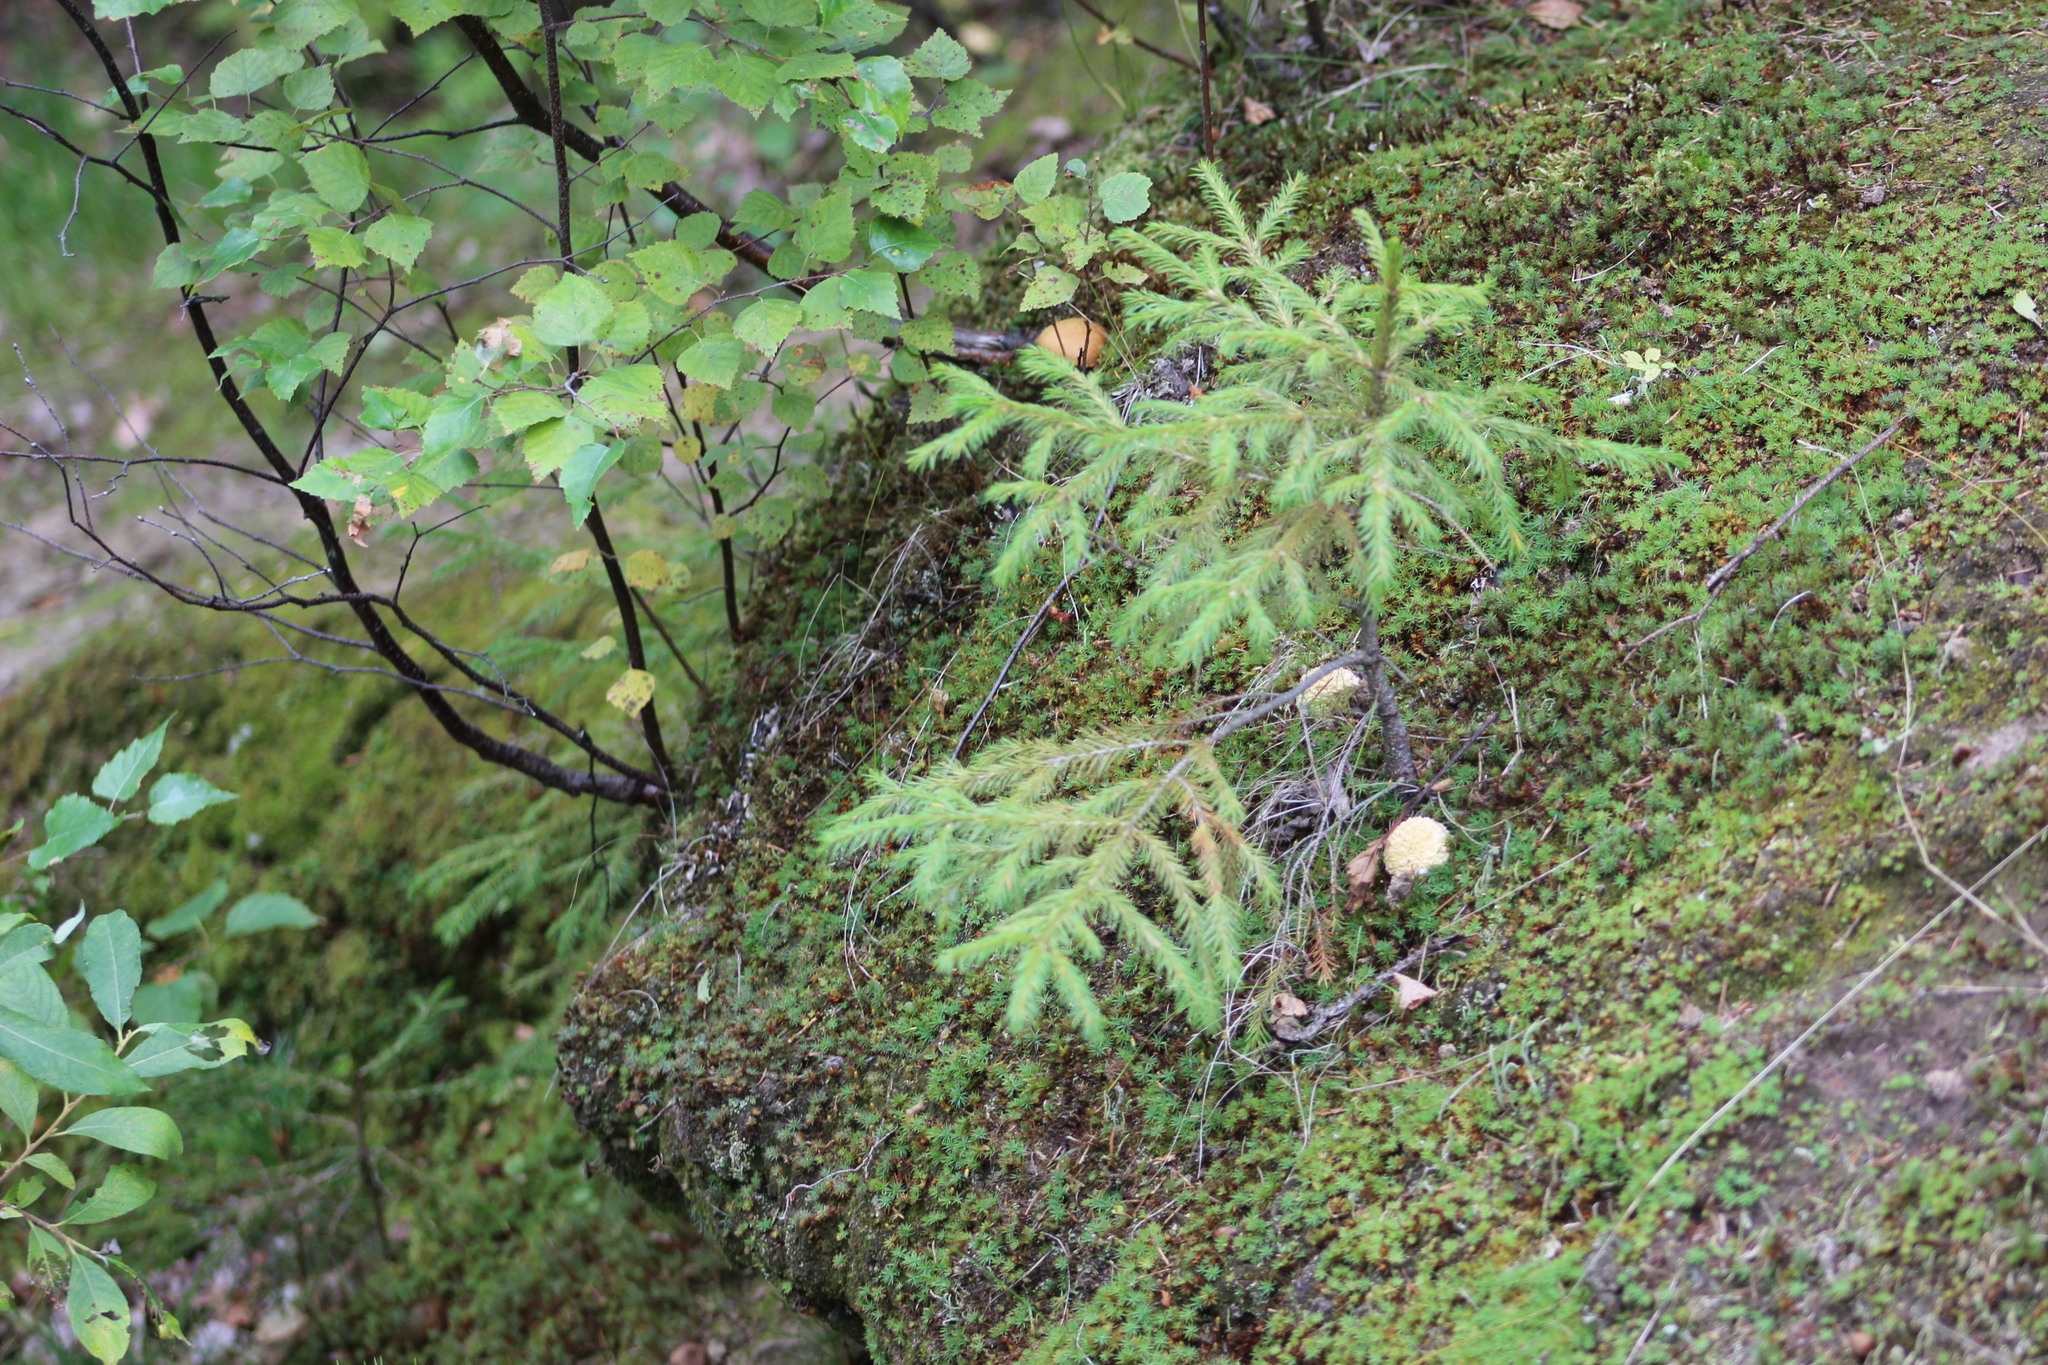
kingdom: Plantae
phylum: Tracheophyta
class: Pinopsida
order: Pinales
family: Pinaceae
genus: Picea
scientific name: Picea obovata
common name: Siberian spruce
